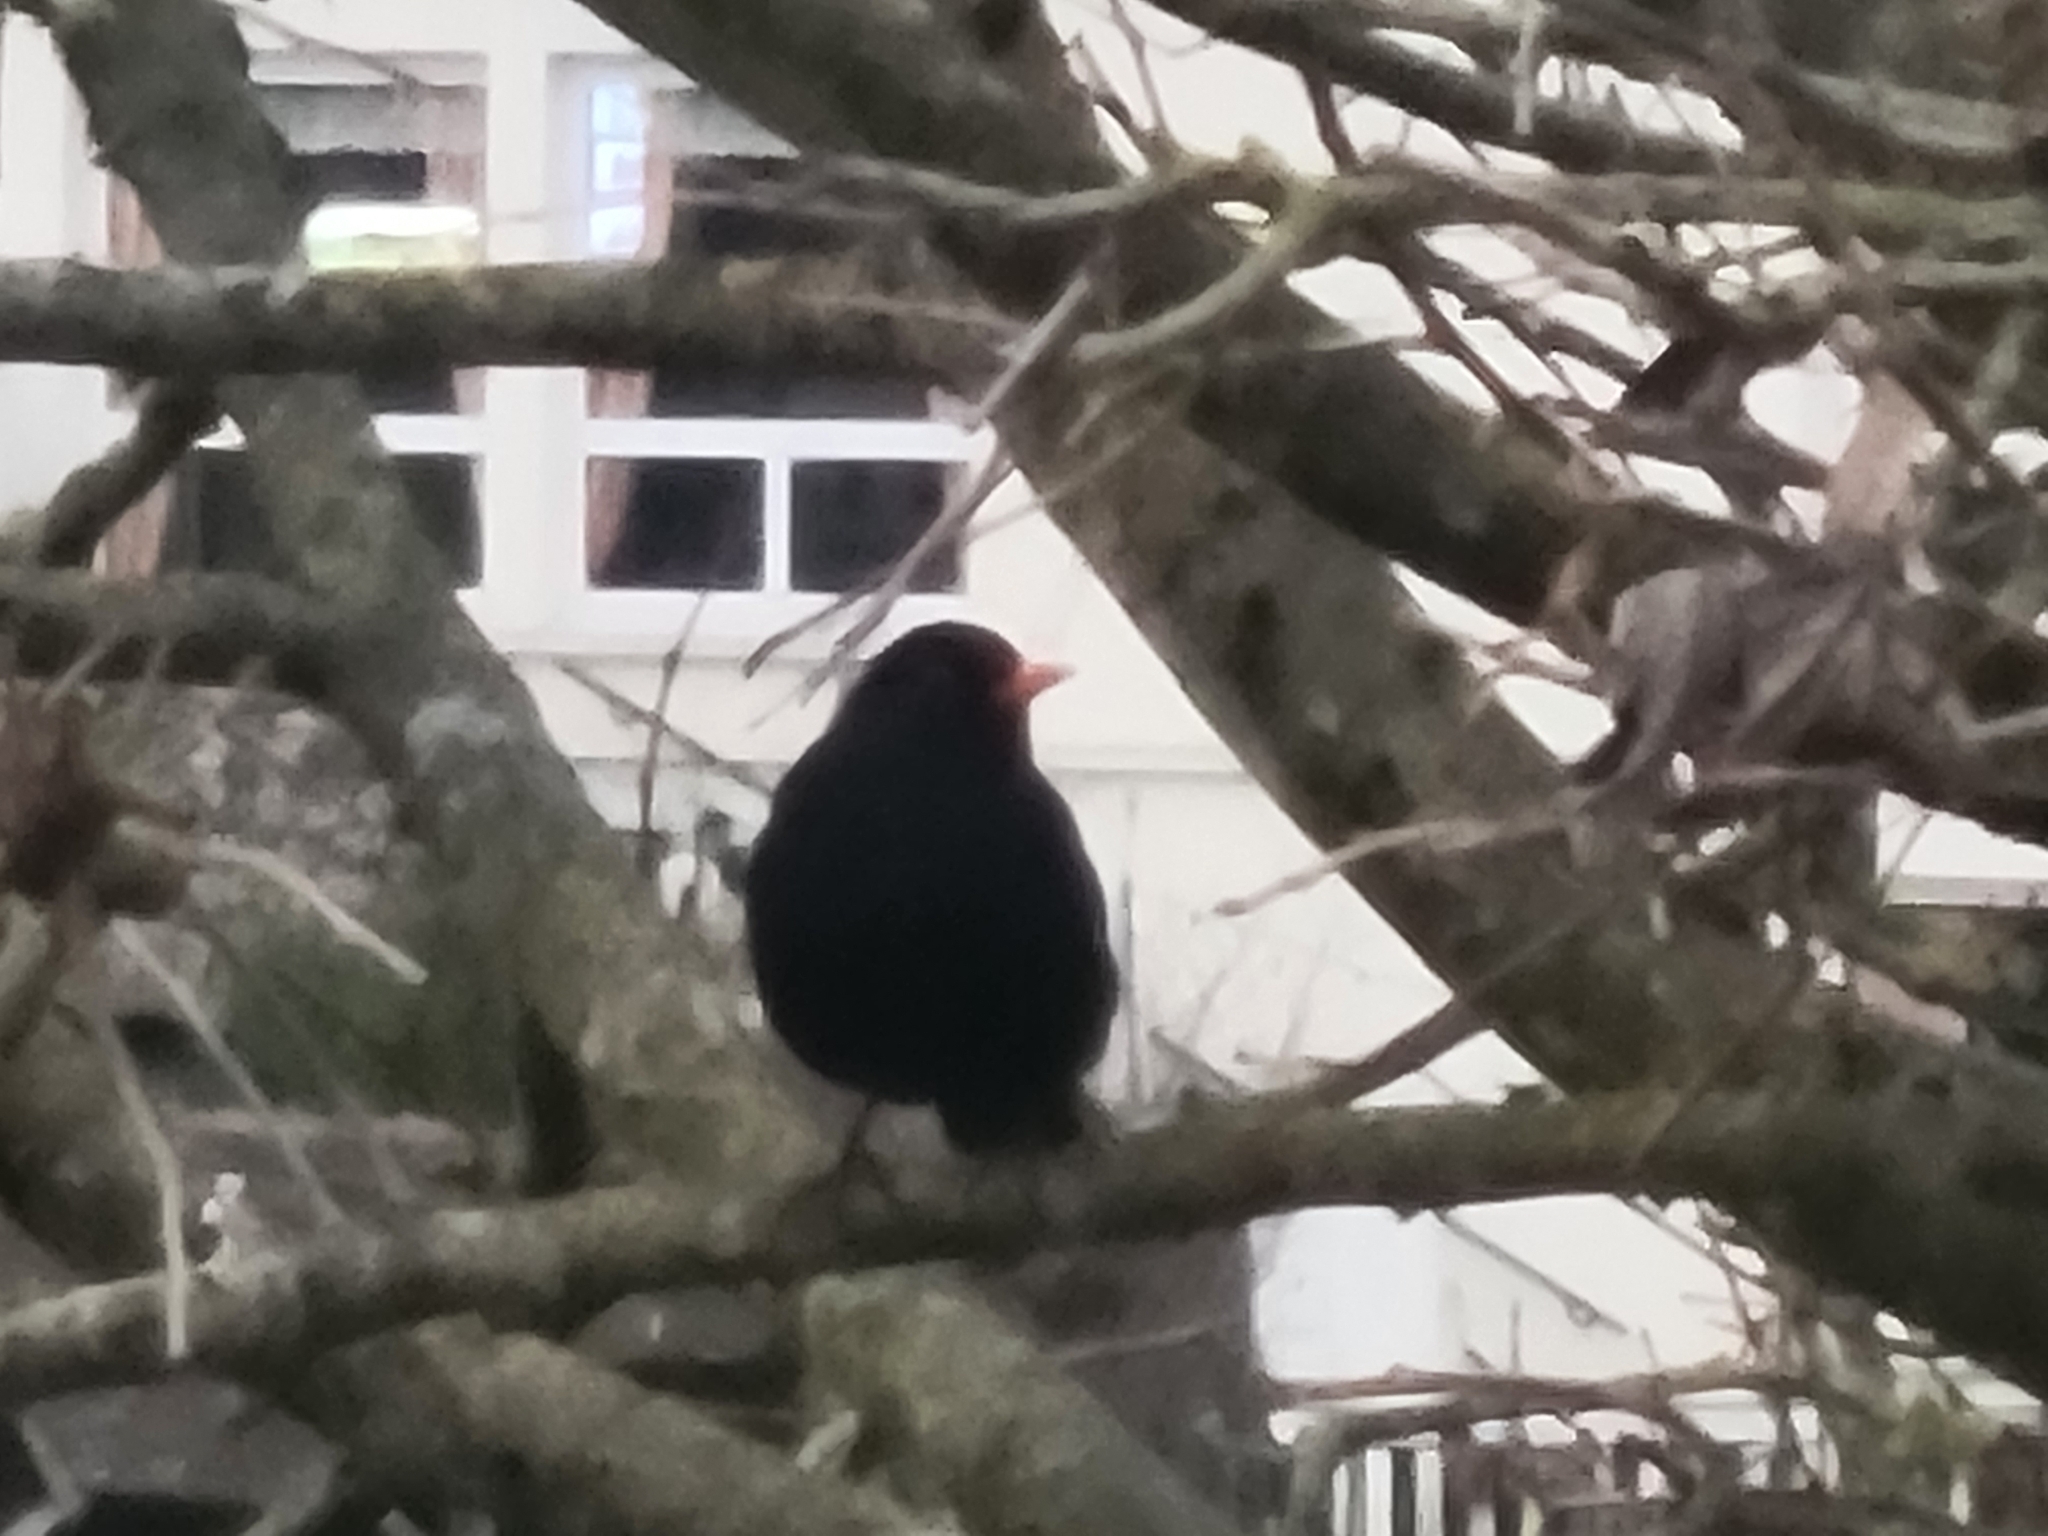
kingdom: Animalia
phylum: Chordata
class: Aves
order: Passeriformes
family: Turdidae
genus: Turdus
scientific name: Turdus merula
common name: Common blackbird
